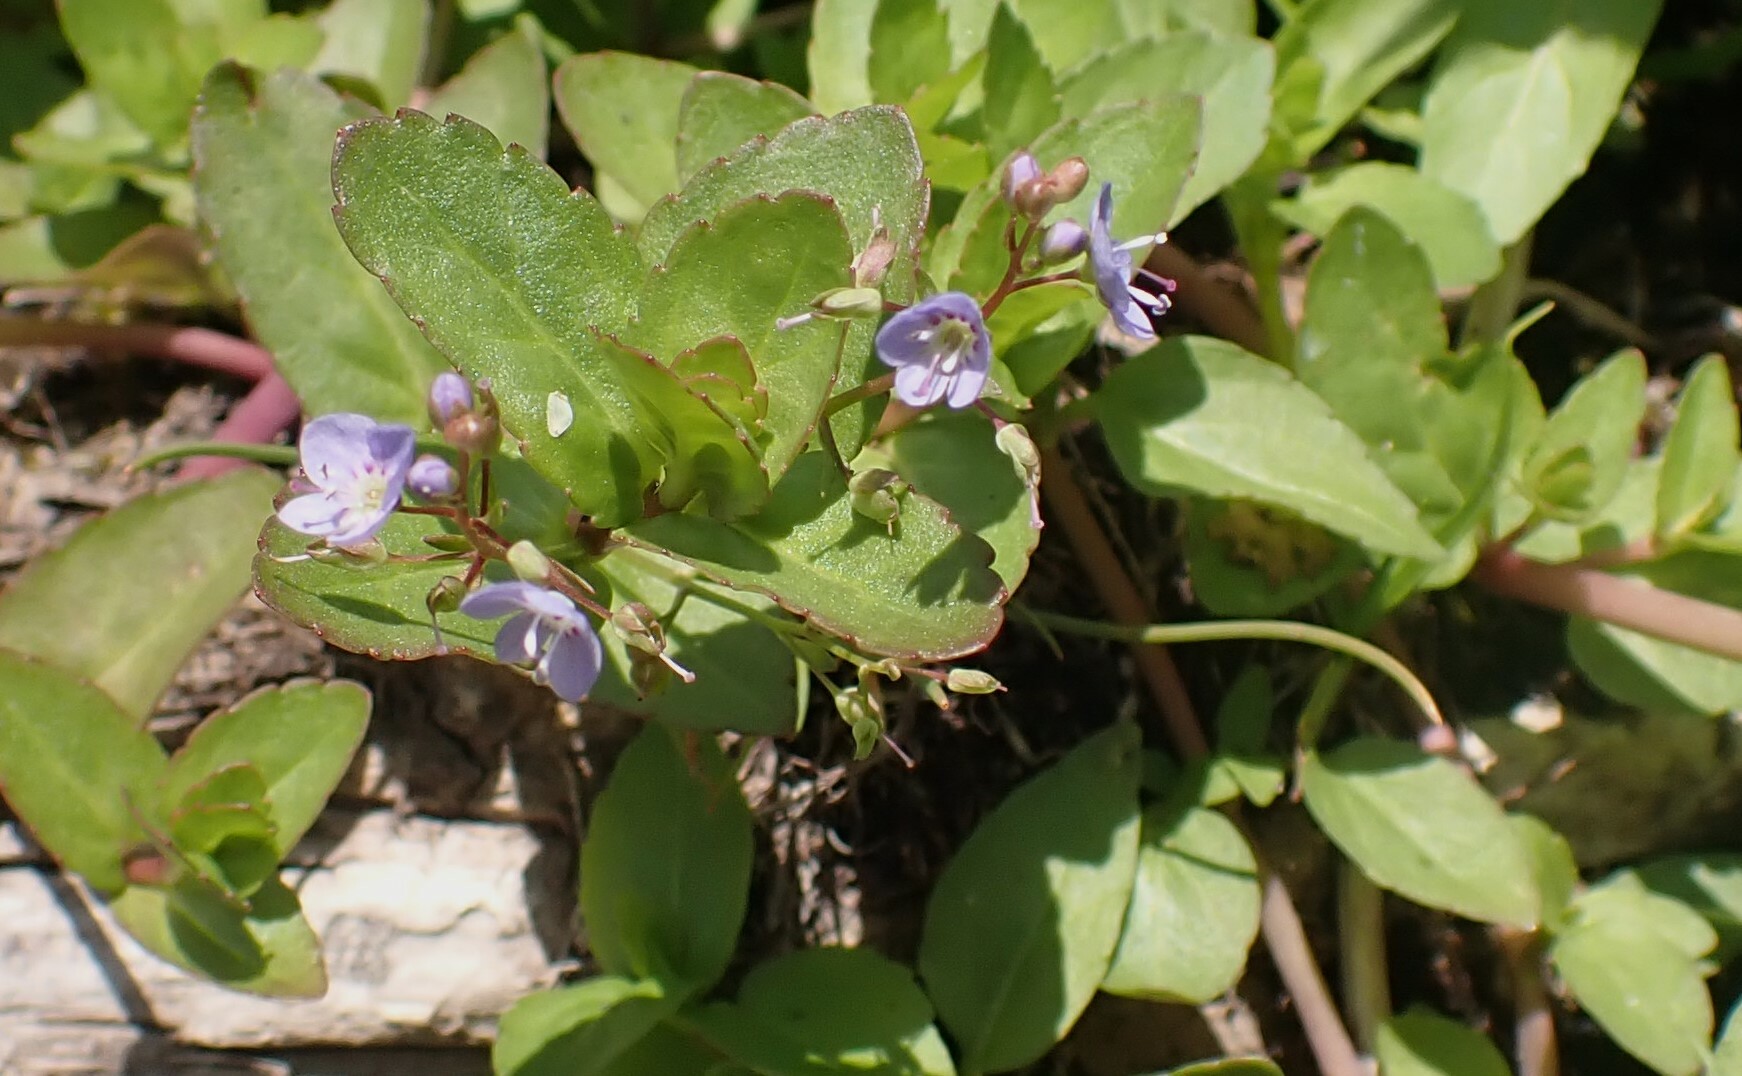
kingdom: Plantae
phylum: Tracheophyta
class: Magnoliopsida
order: Lamiales
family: Plantaginaceae
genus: Veronica
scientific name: Veronica americana
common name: American brooklime
